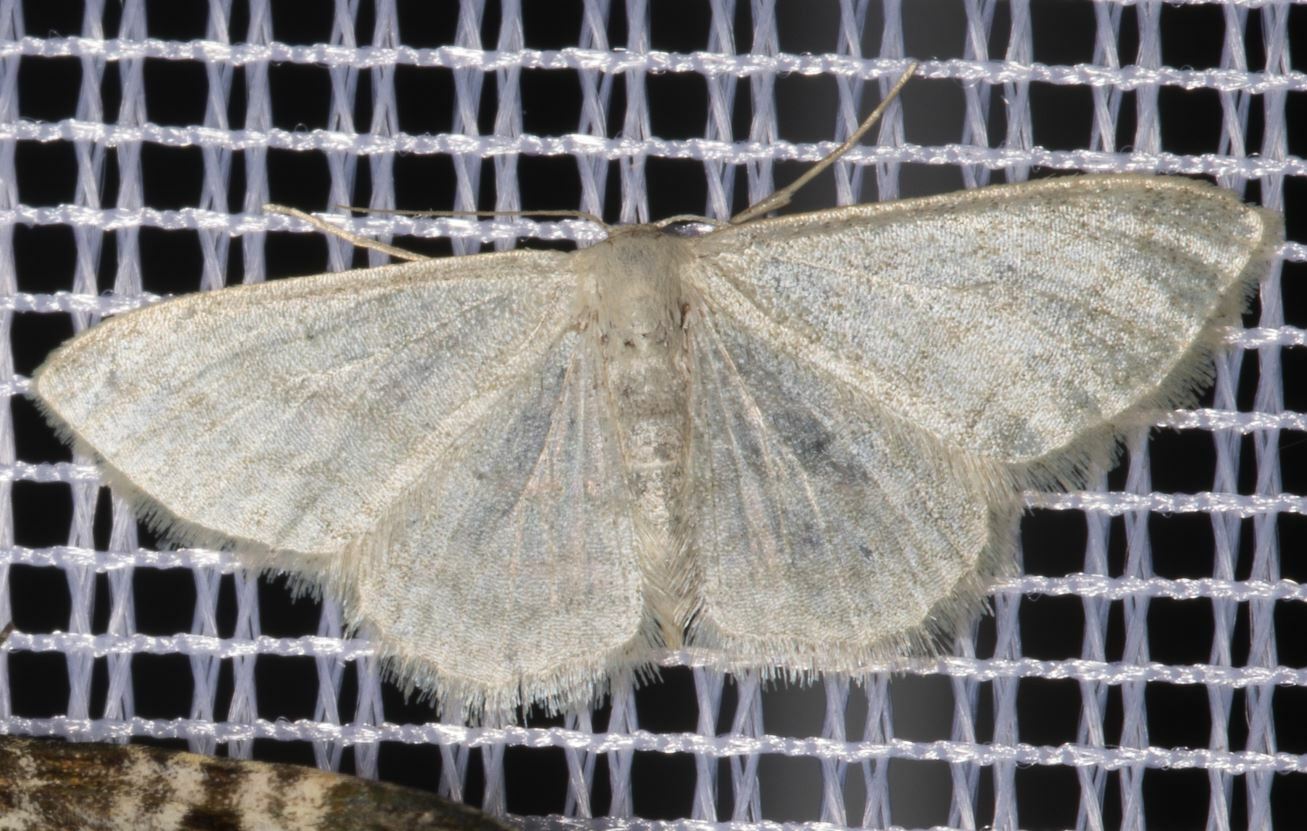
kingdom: Animalia
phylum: Arthropoda
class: Insecta
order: Lepidoptera
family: Geometridae
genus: Idaea
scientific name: Idaea subsericeata
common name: Satin wave
